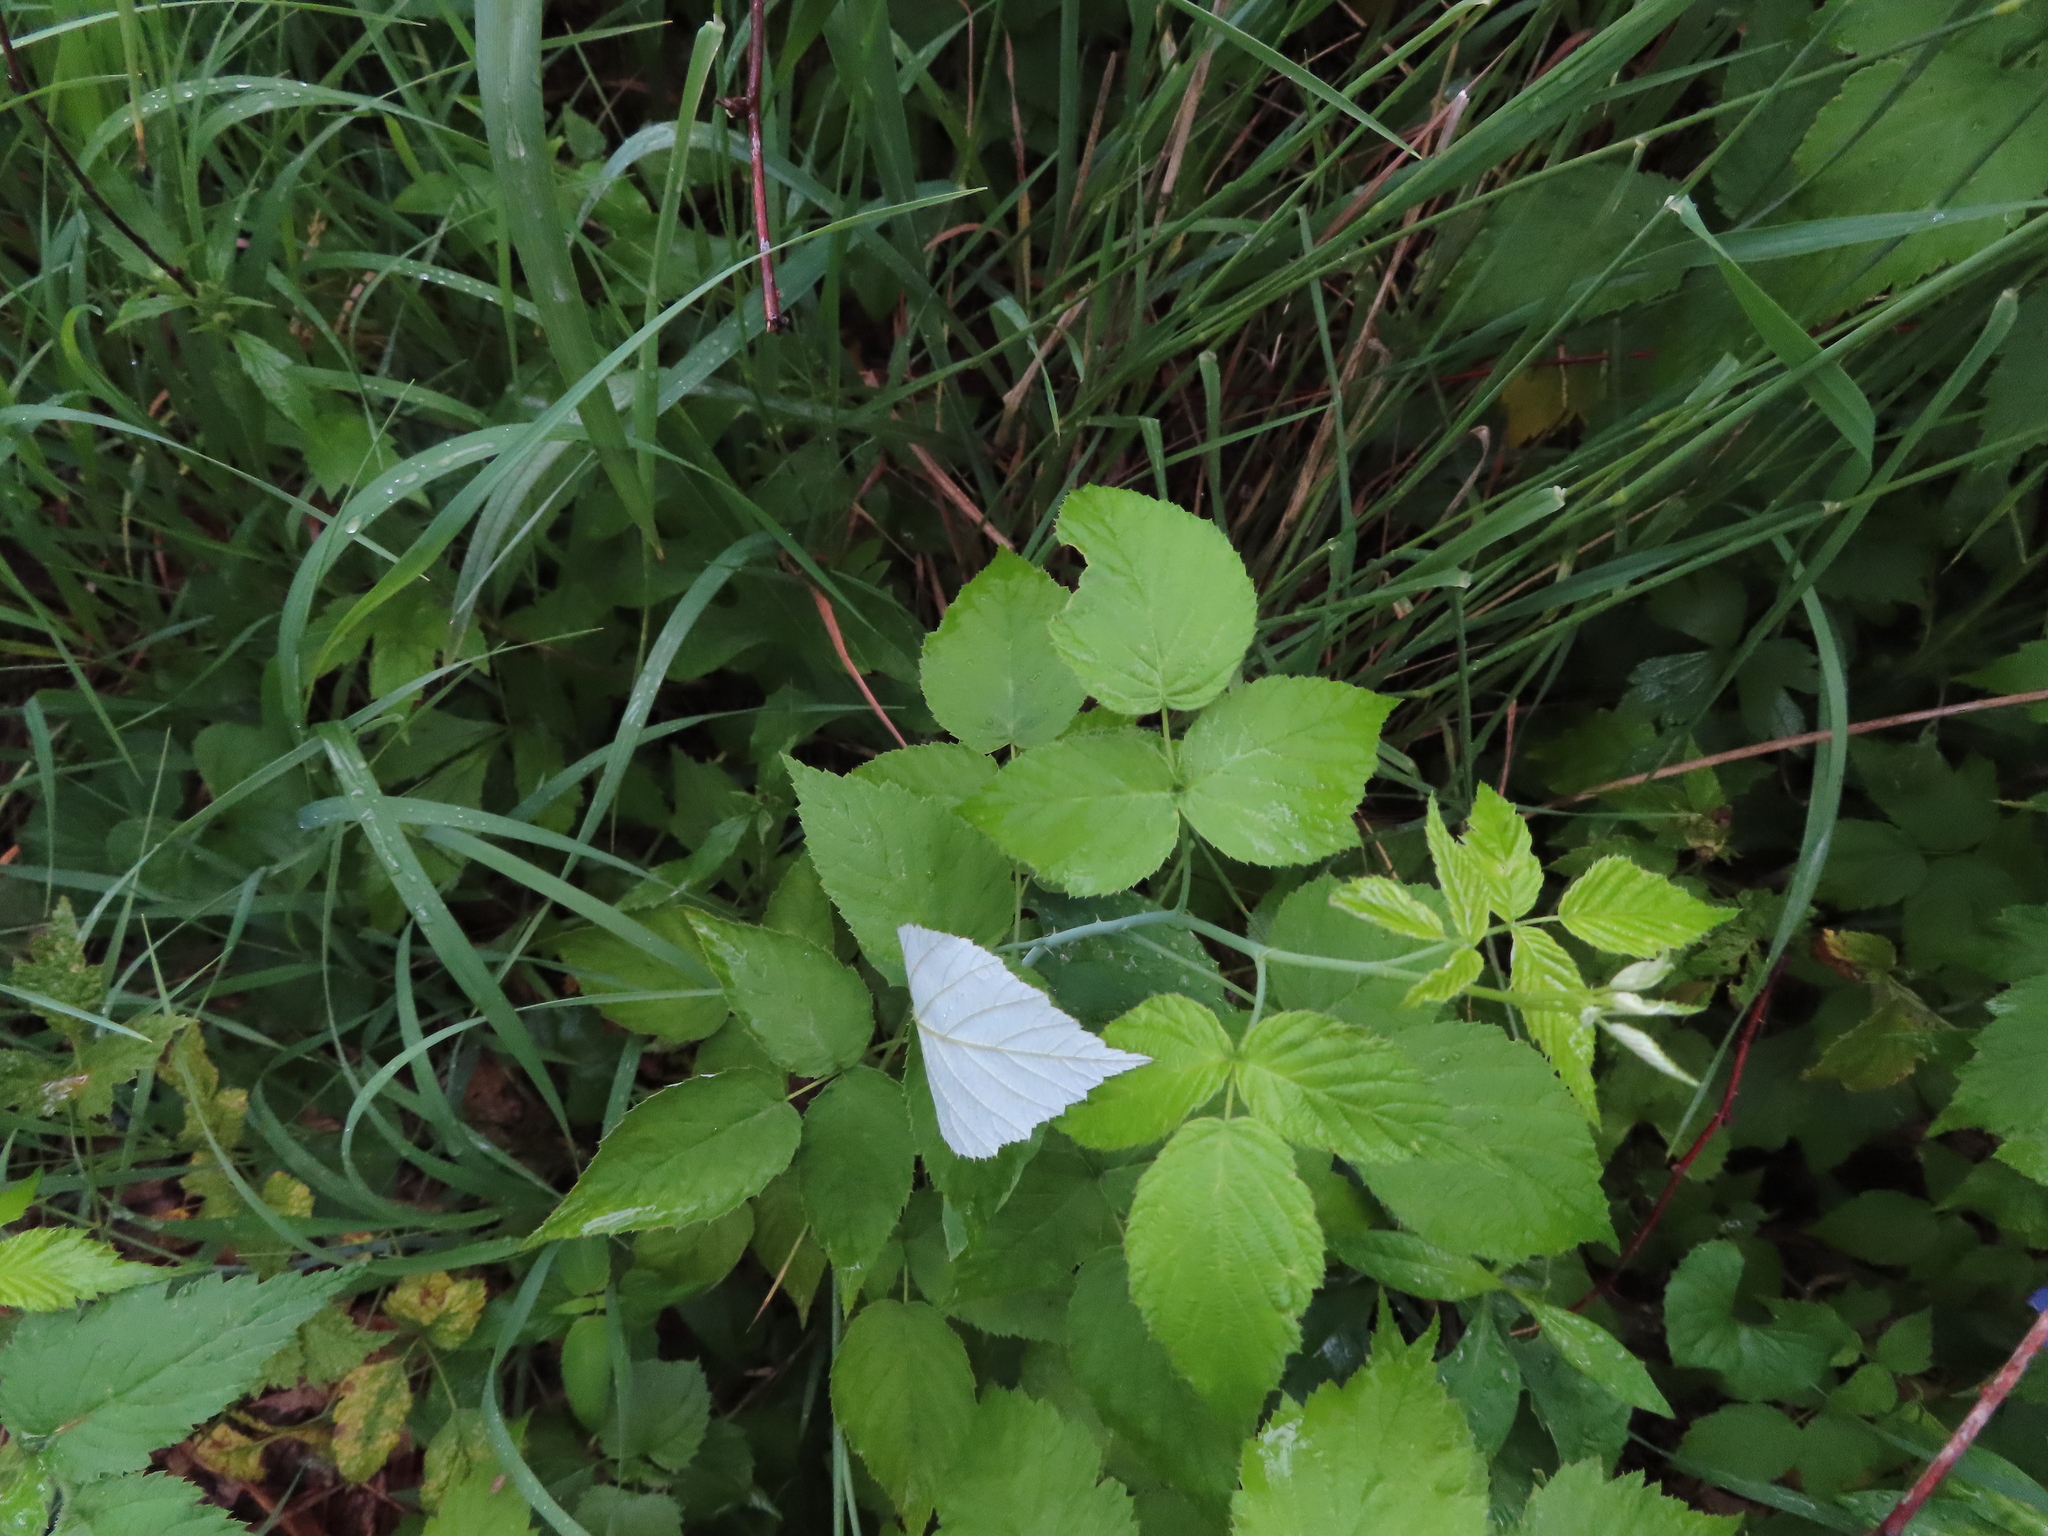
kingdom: Plantae
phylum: Tracheophyta
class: Magnoliopsida
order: Rosales
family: Rosaceae
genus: Rubus
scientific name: Rubus occidentalis
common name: Black raspberry
